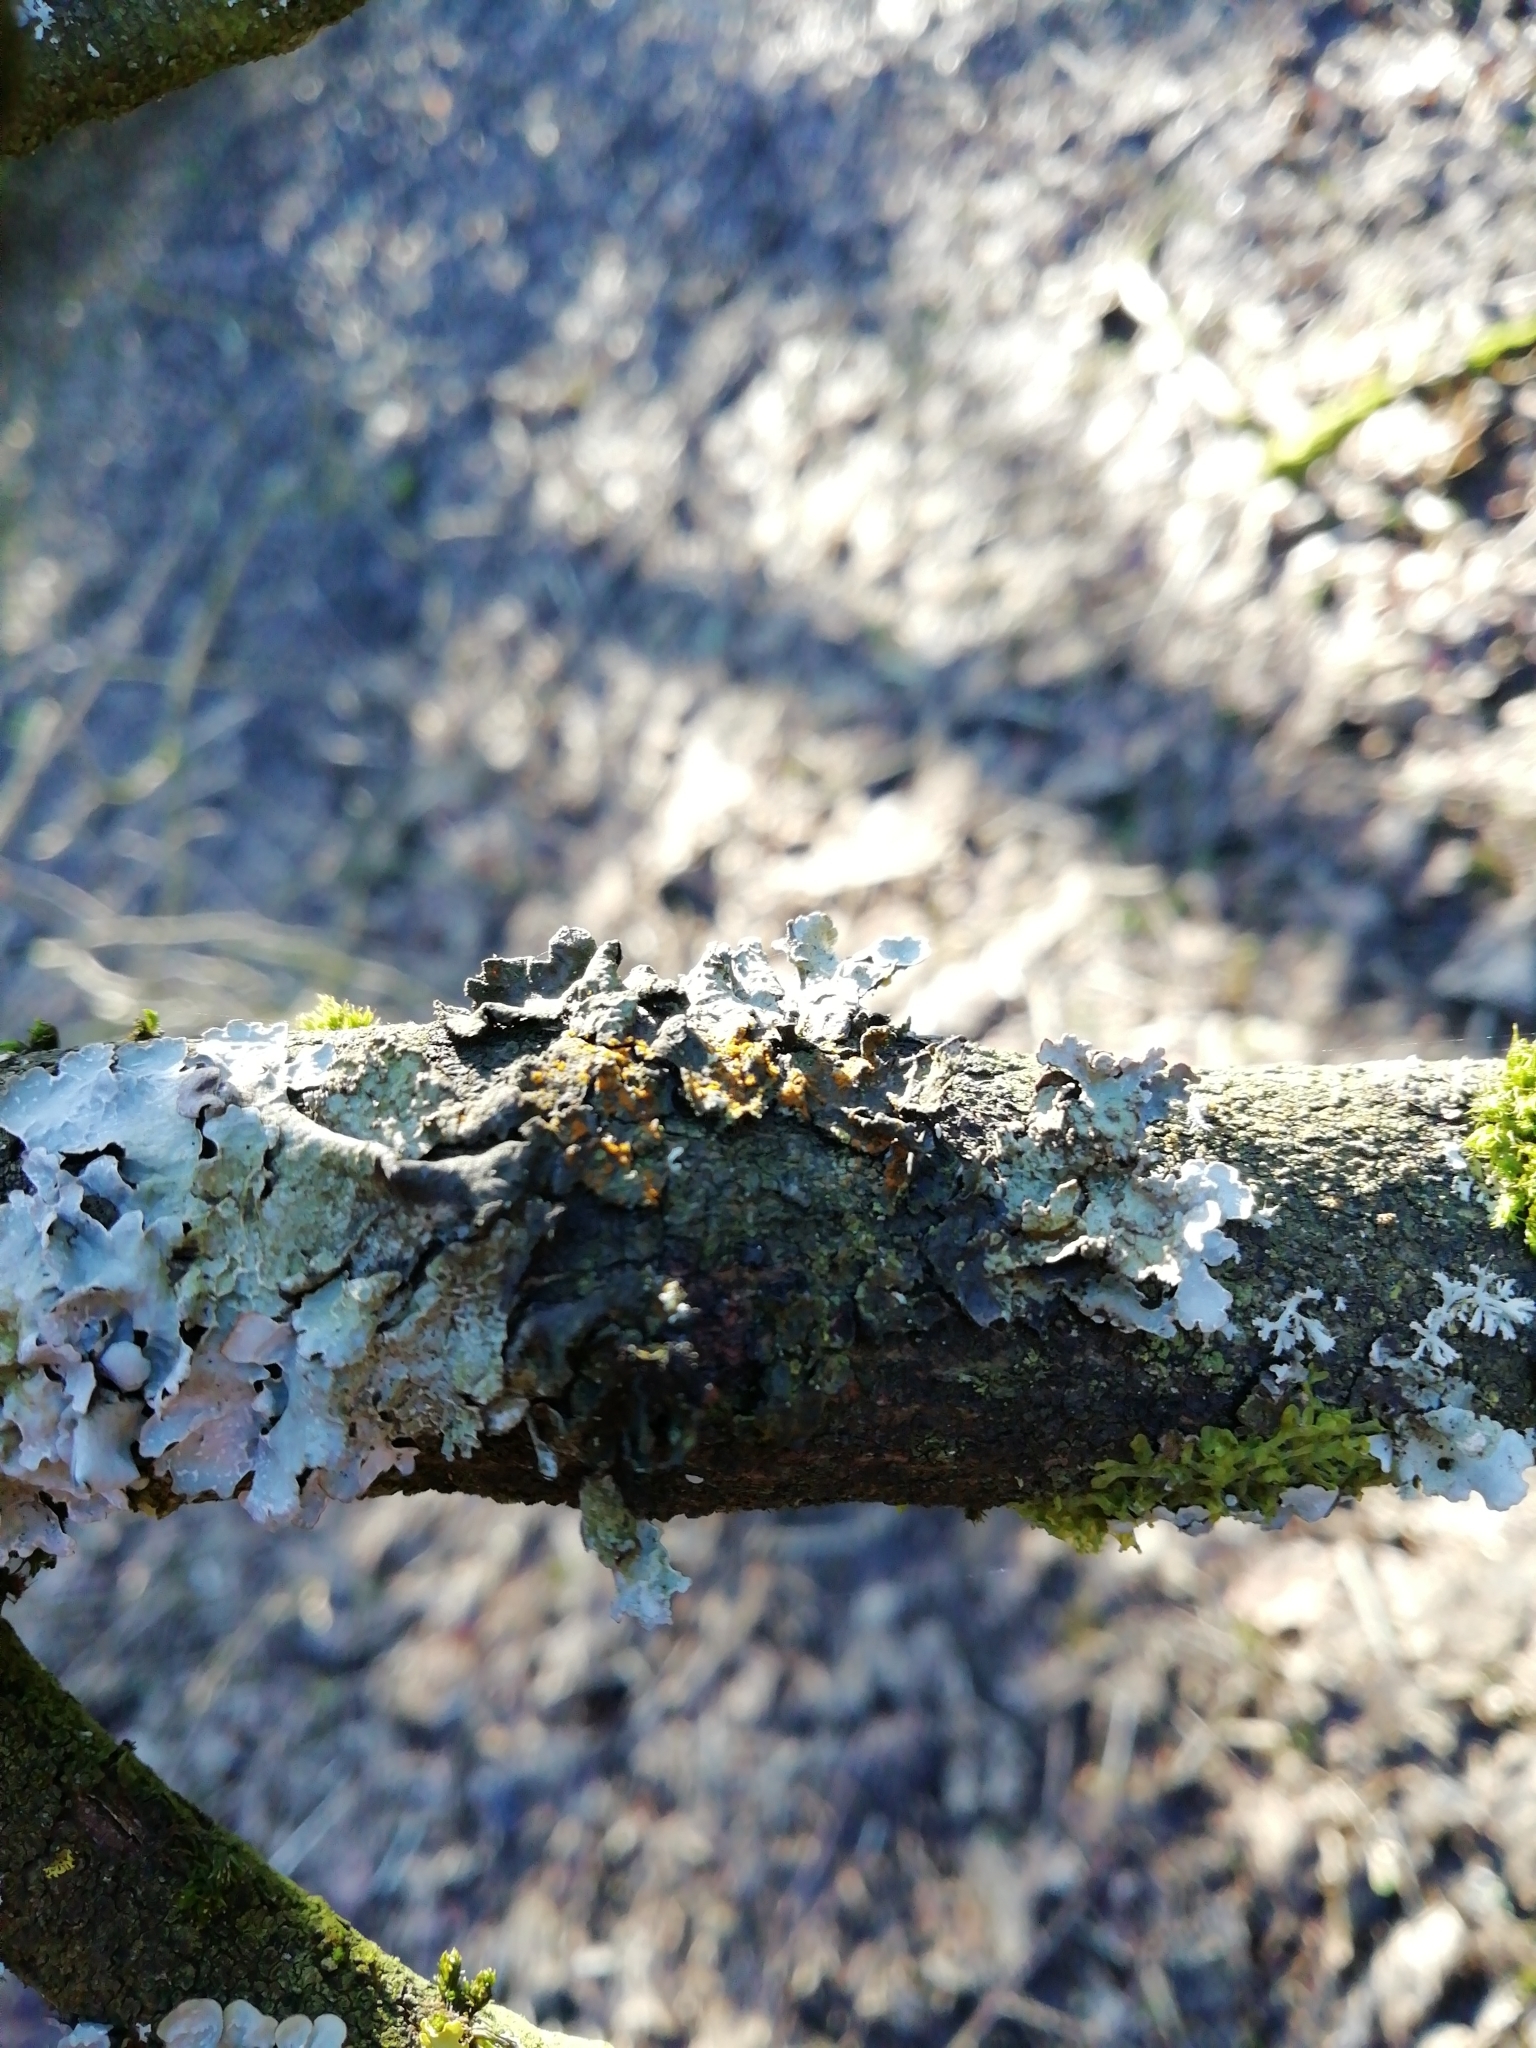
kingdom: Fungi
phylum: Ascomycota
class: Lecanoromycetes
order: Lecanorales
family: Parmeliaceae
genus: Parmelia
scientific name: Parmelia sulcata
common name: Netted shield lichen
